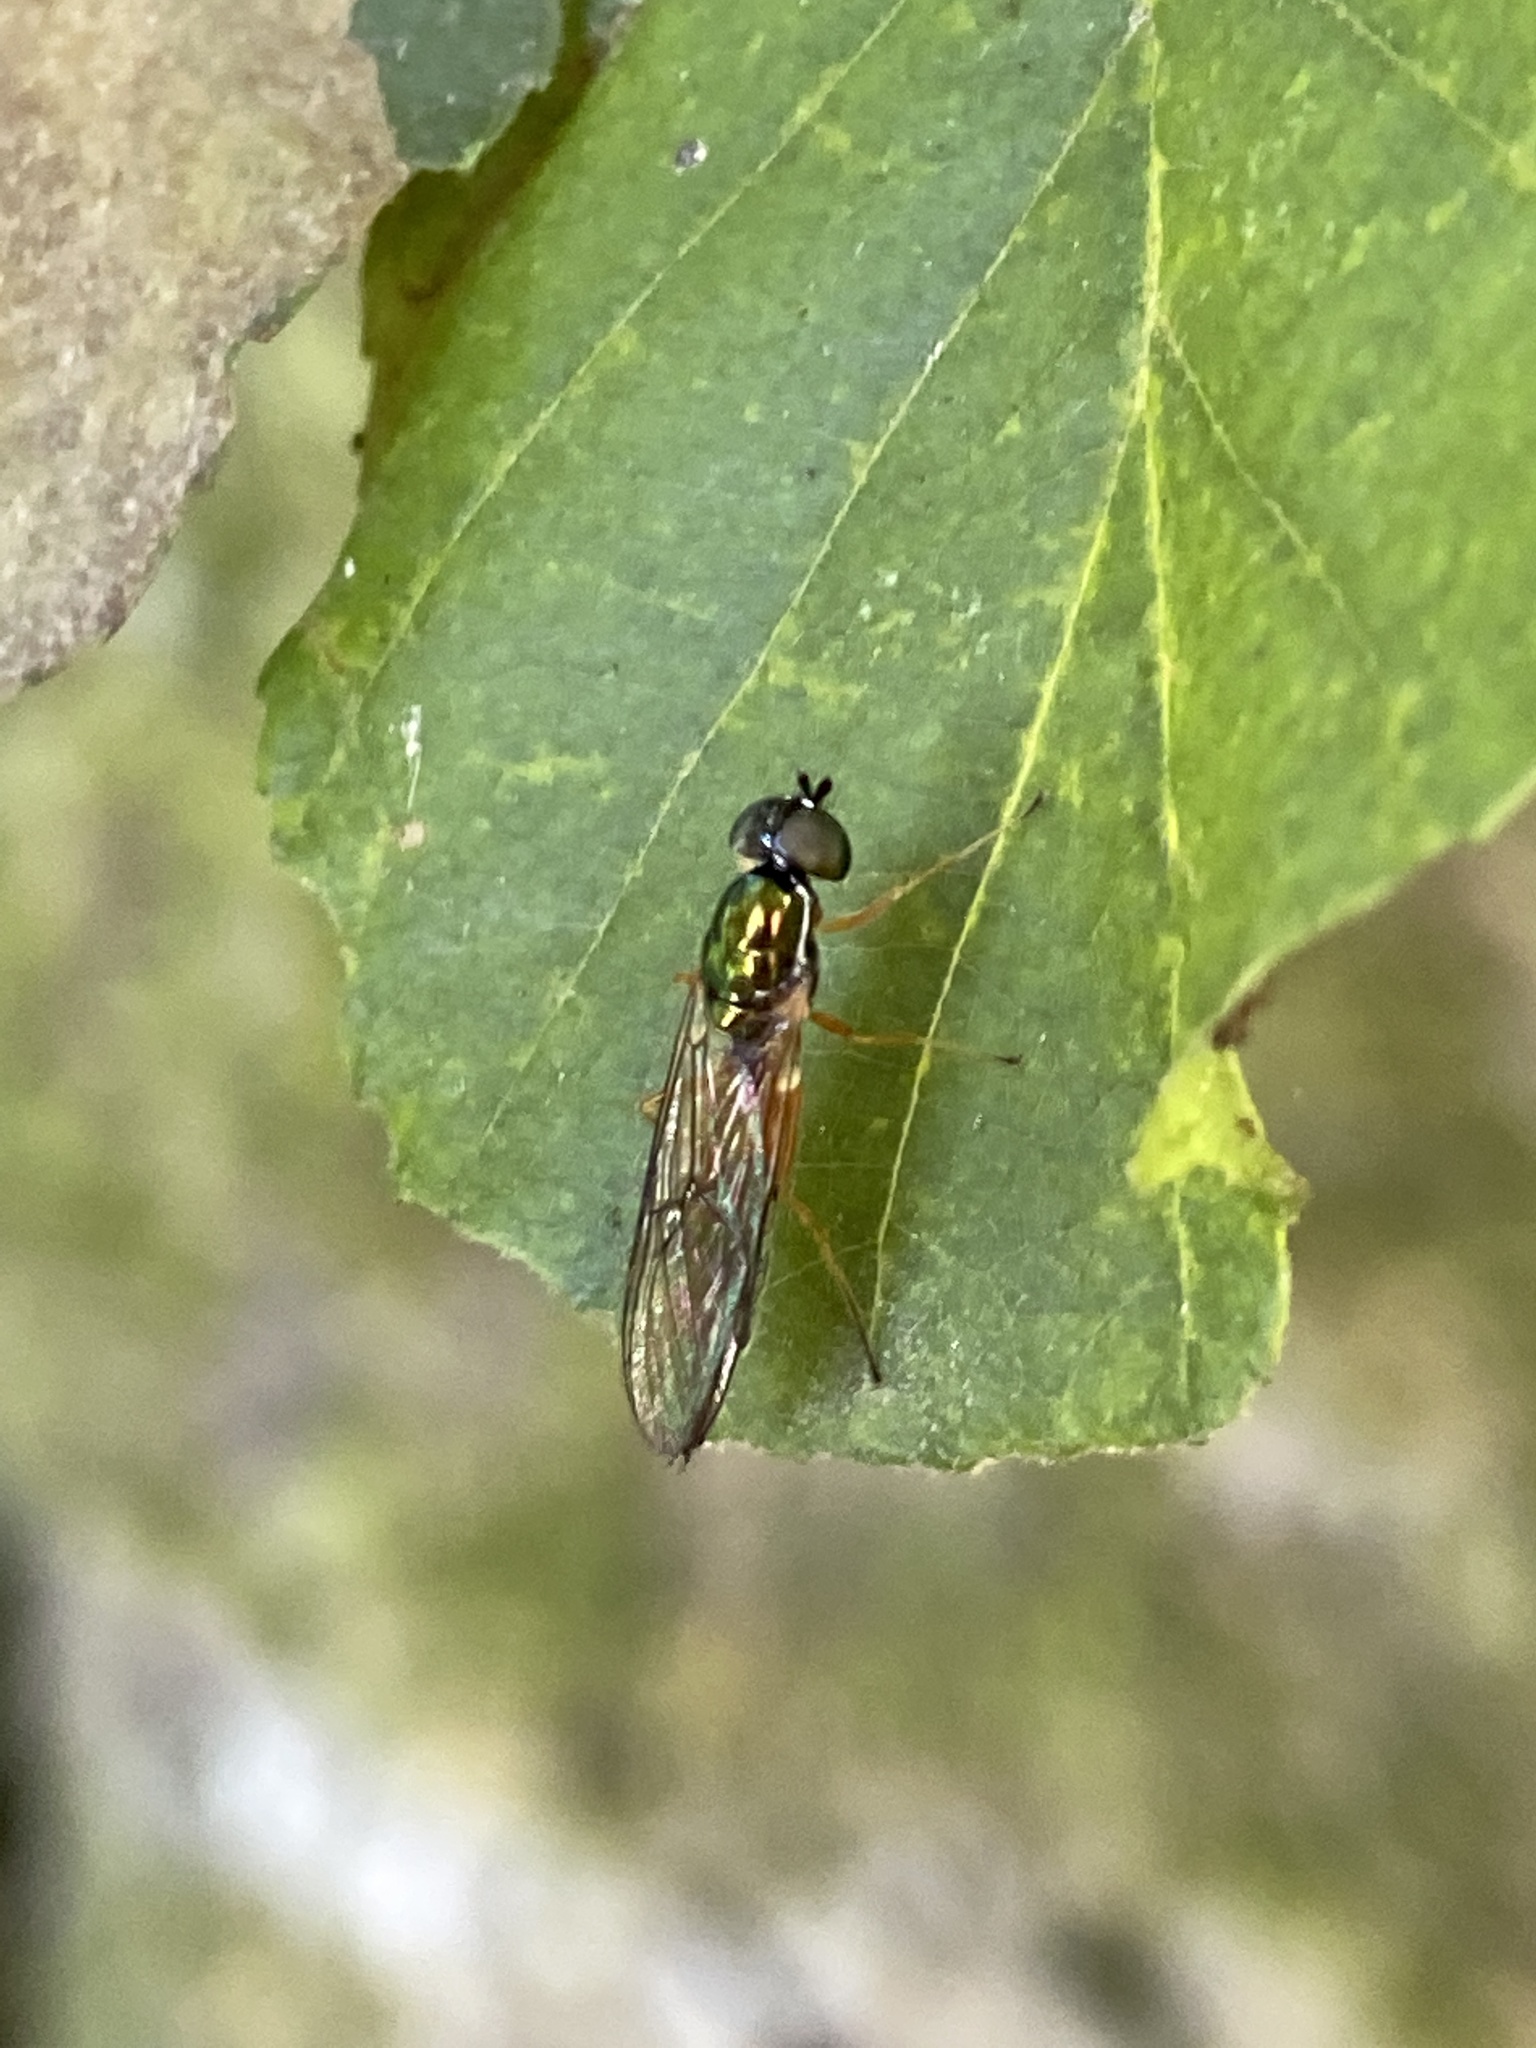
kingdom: Animalia
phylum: Arthropoda
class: Insecta
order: Diptera
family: Stratiomyidae
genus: Sargus
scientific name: Sargus bipunctatus
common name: Twin-spot centurion
